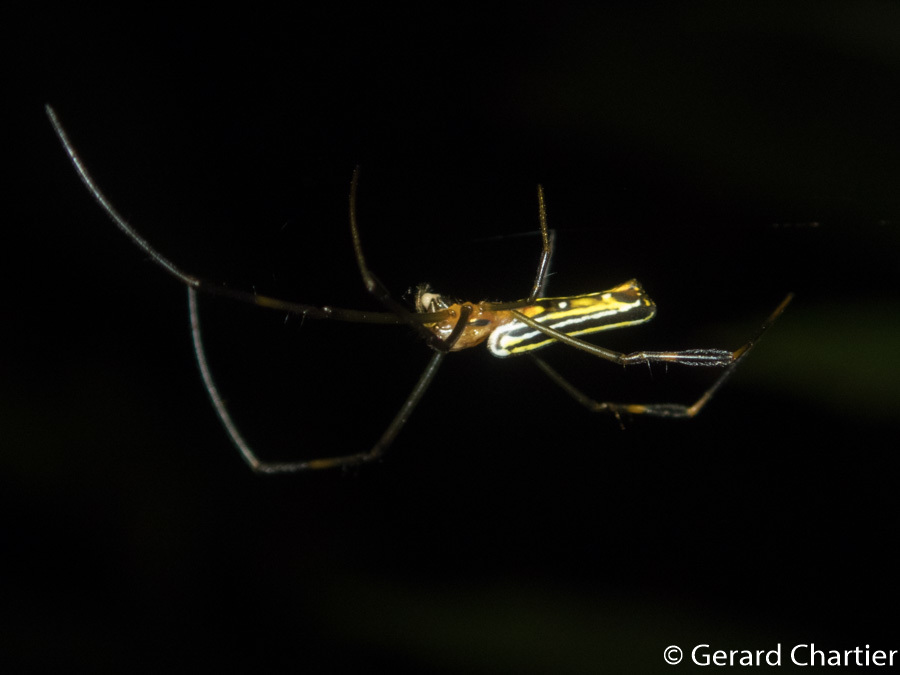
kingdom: Animalia
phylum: Arthropoda
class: Arachnida
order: Araneae
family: Araneidae
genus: Nephila
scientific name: Nephila pilipes
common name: Giant golden orb weaver
